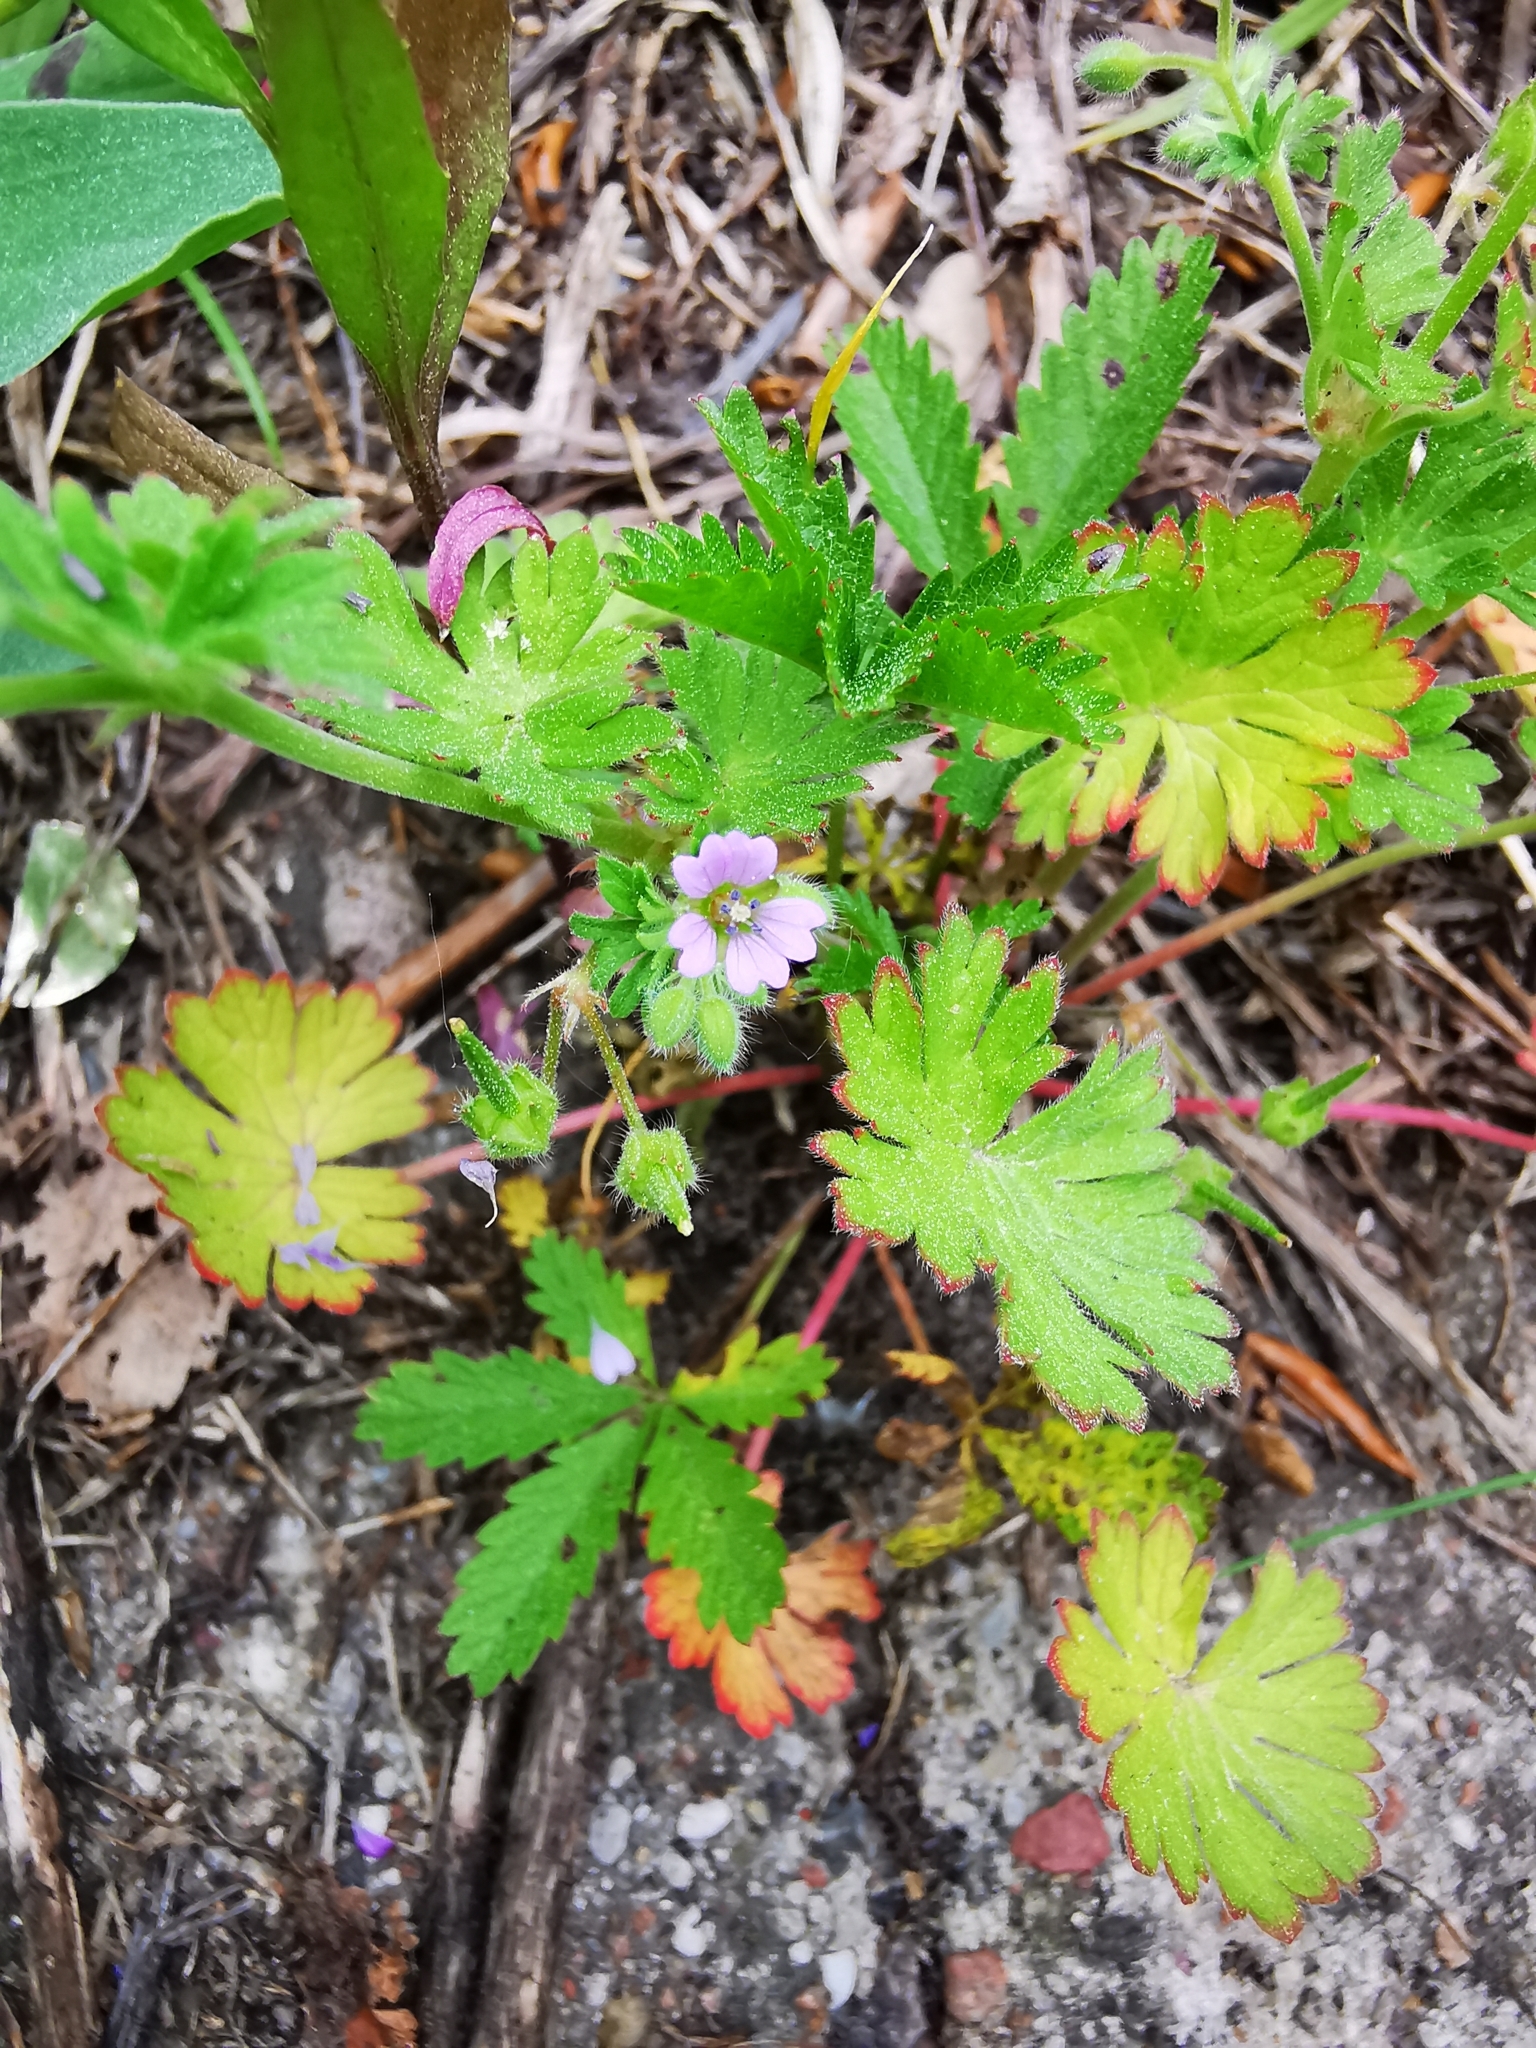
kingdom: Plantae
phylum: Tracheophyta
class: Magnoliopsida
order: Geraniales
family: Geraniaceae
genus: Geranium
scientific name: Geranium pusillum
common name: Small geranium
